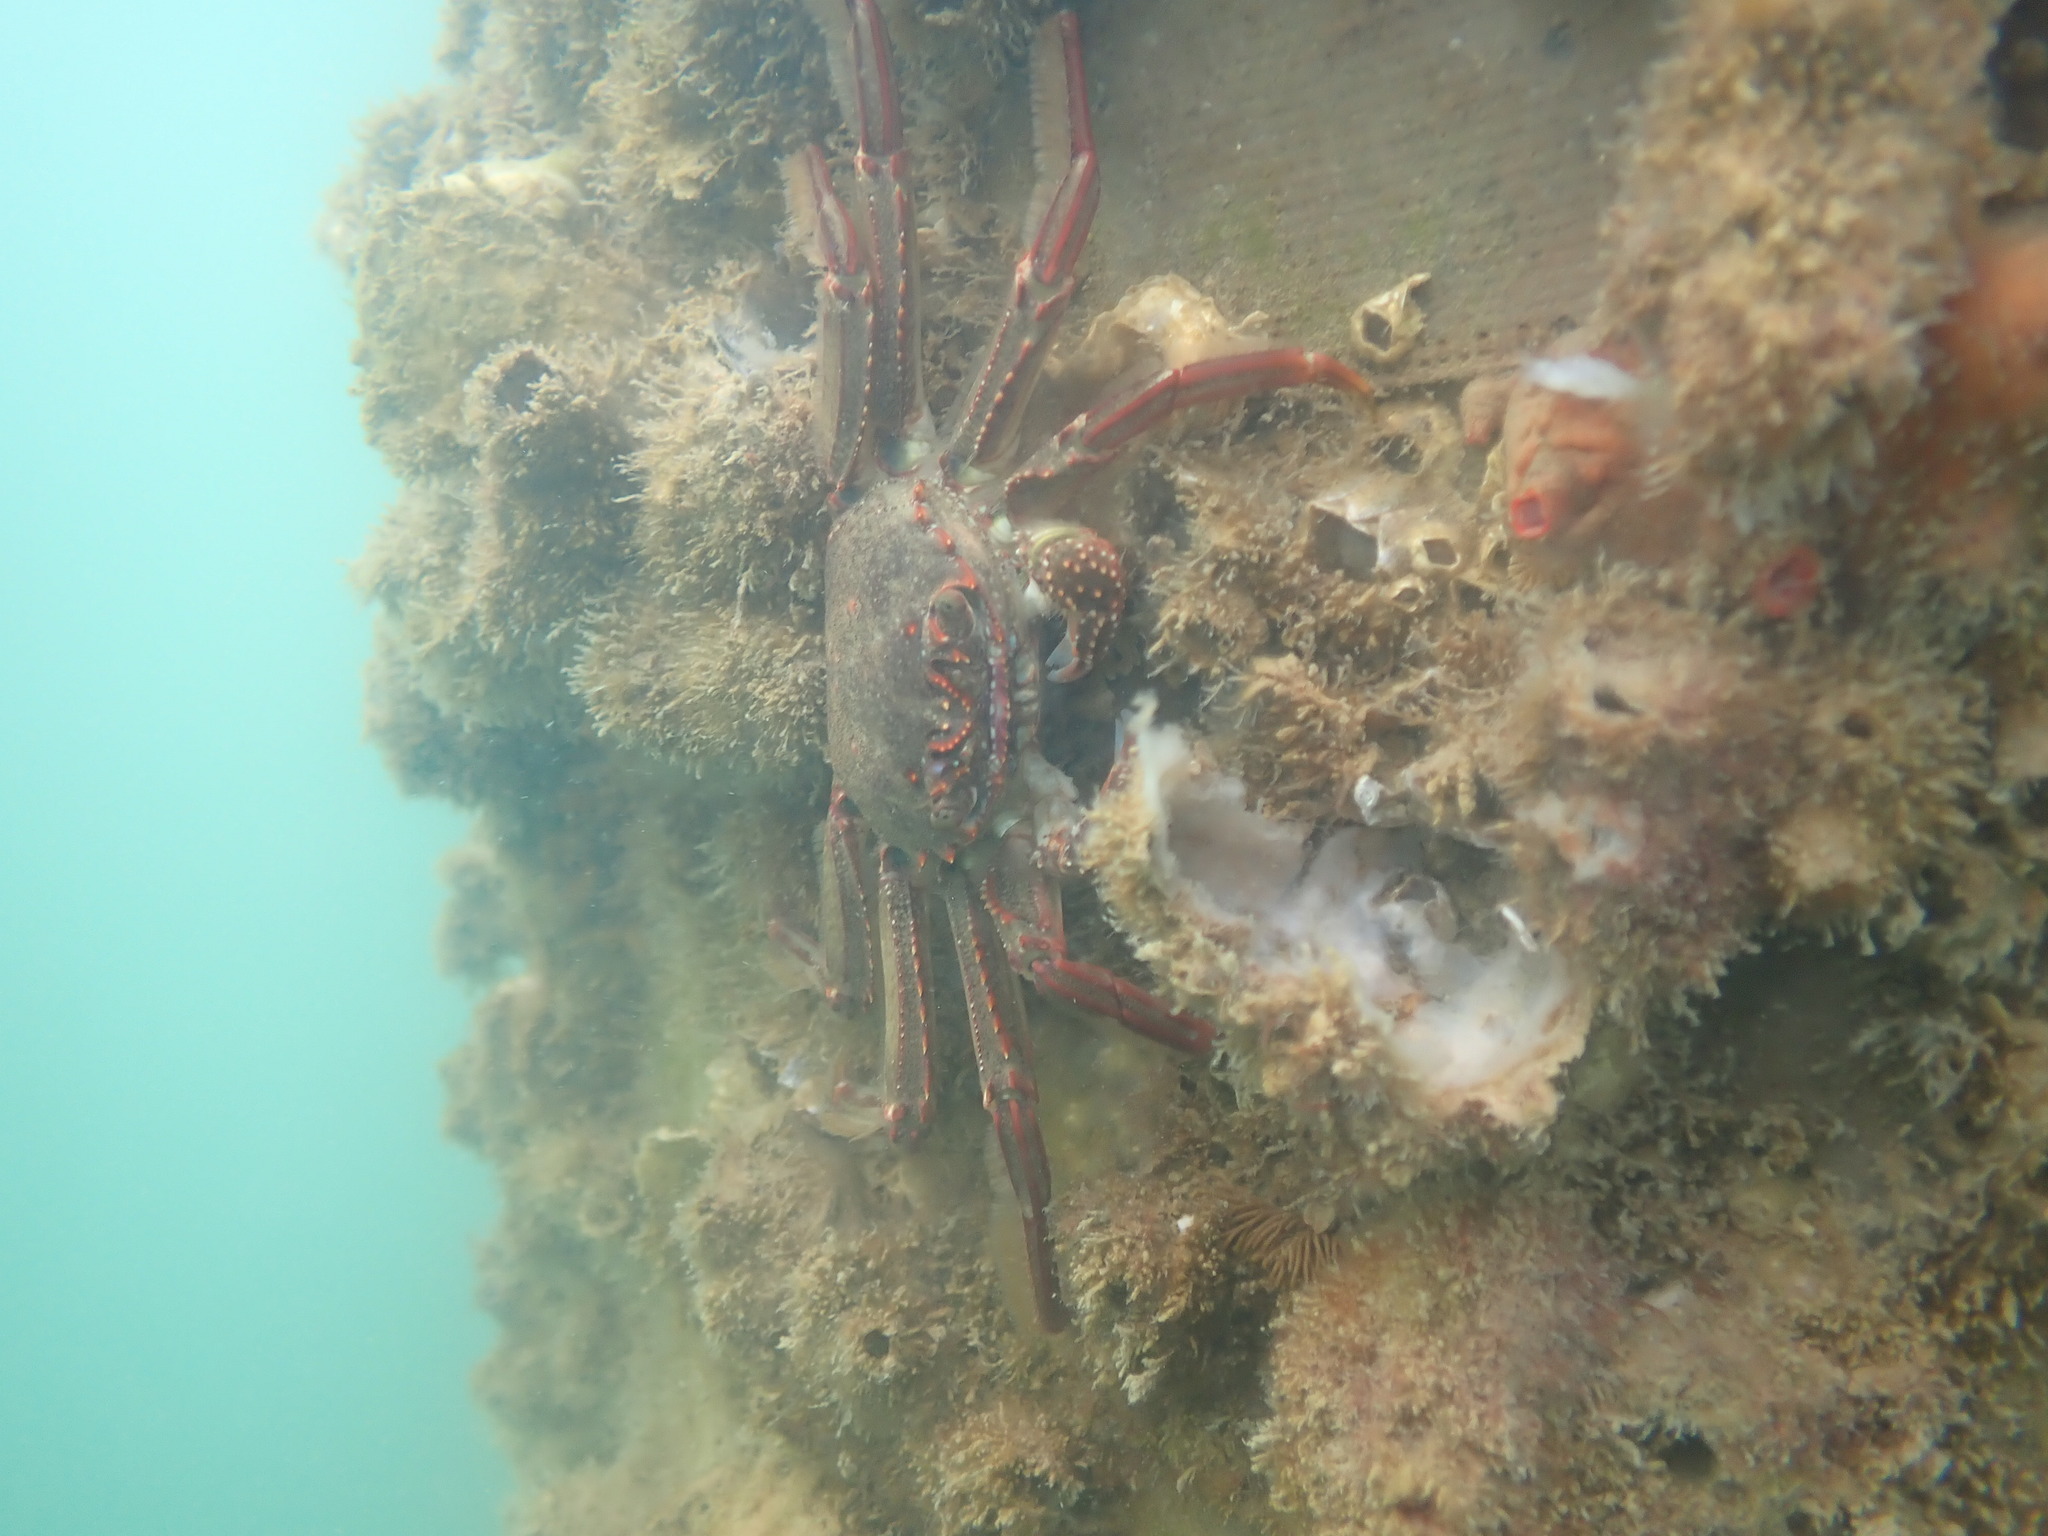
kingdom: Animalia
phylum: Arthropoda
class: Malacostraca
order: Decapoda
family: Plagusiidae
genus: Guinusia
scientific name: Guinusia chabrus
